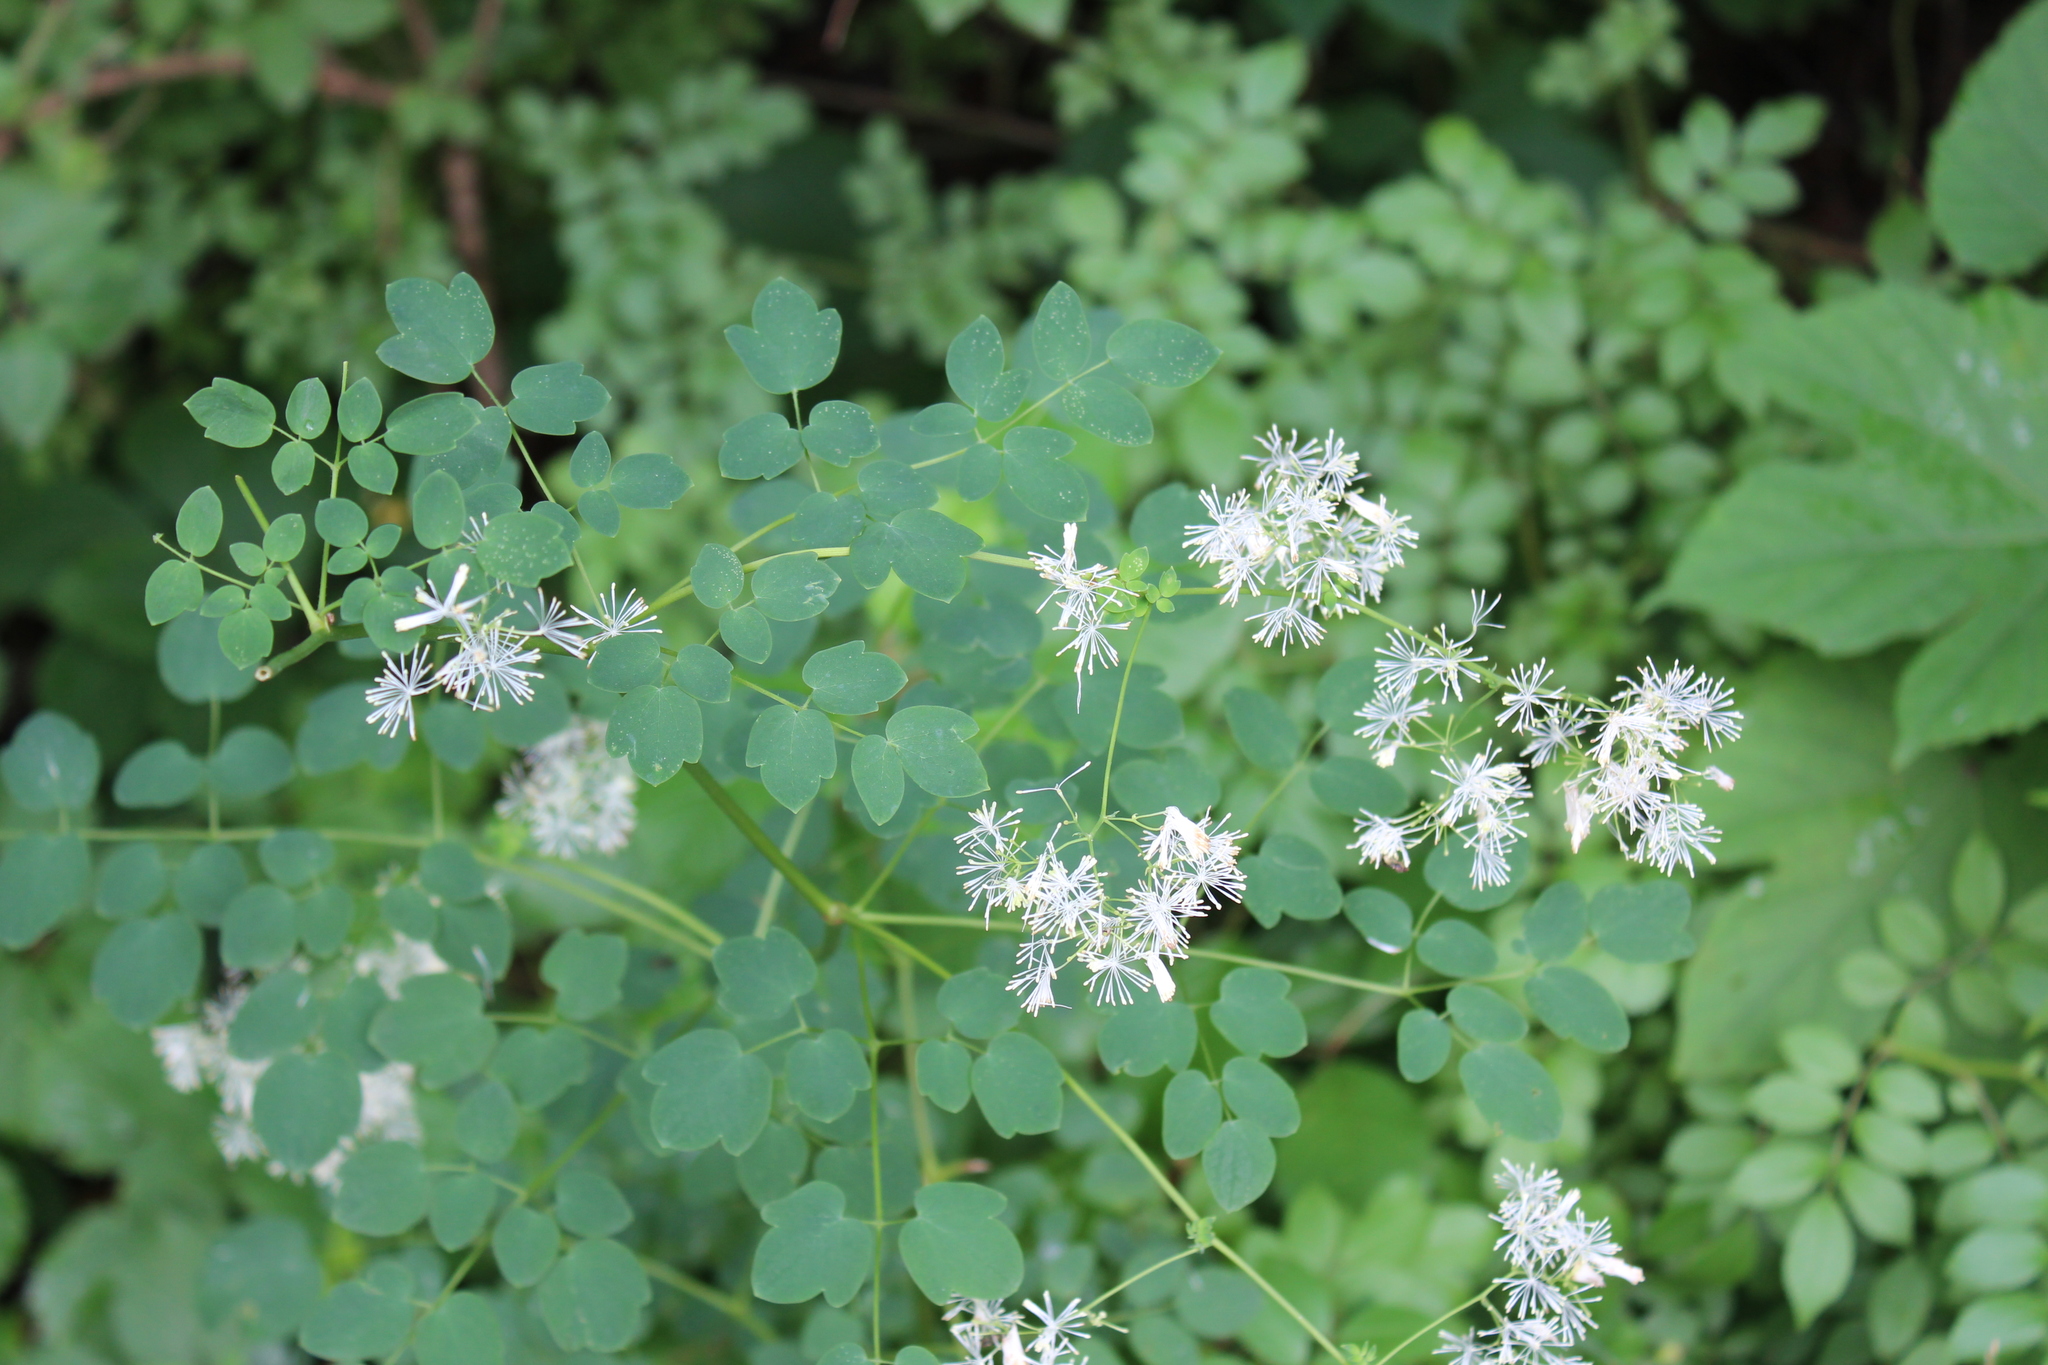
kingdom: Plantae
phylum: Tracheophyta
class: Magnoliopsida
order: Ranunculales
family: Ranunculaceae
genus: Thalictrum
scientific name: Thalictrum pubescens
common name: King-of-the-meadow
